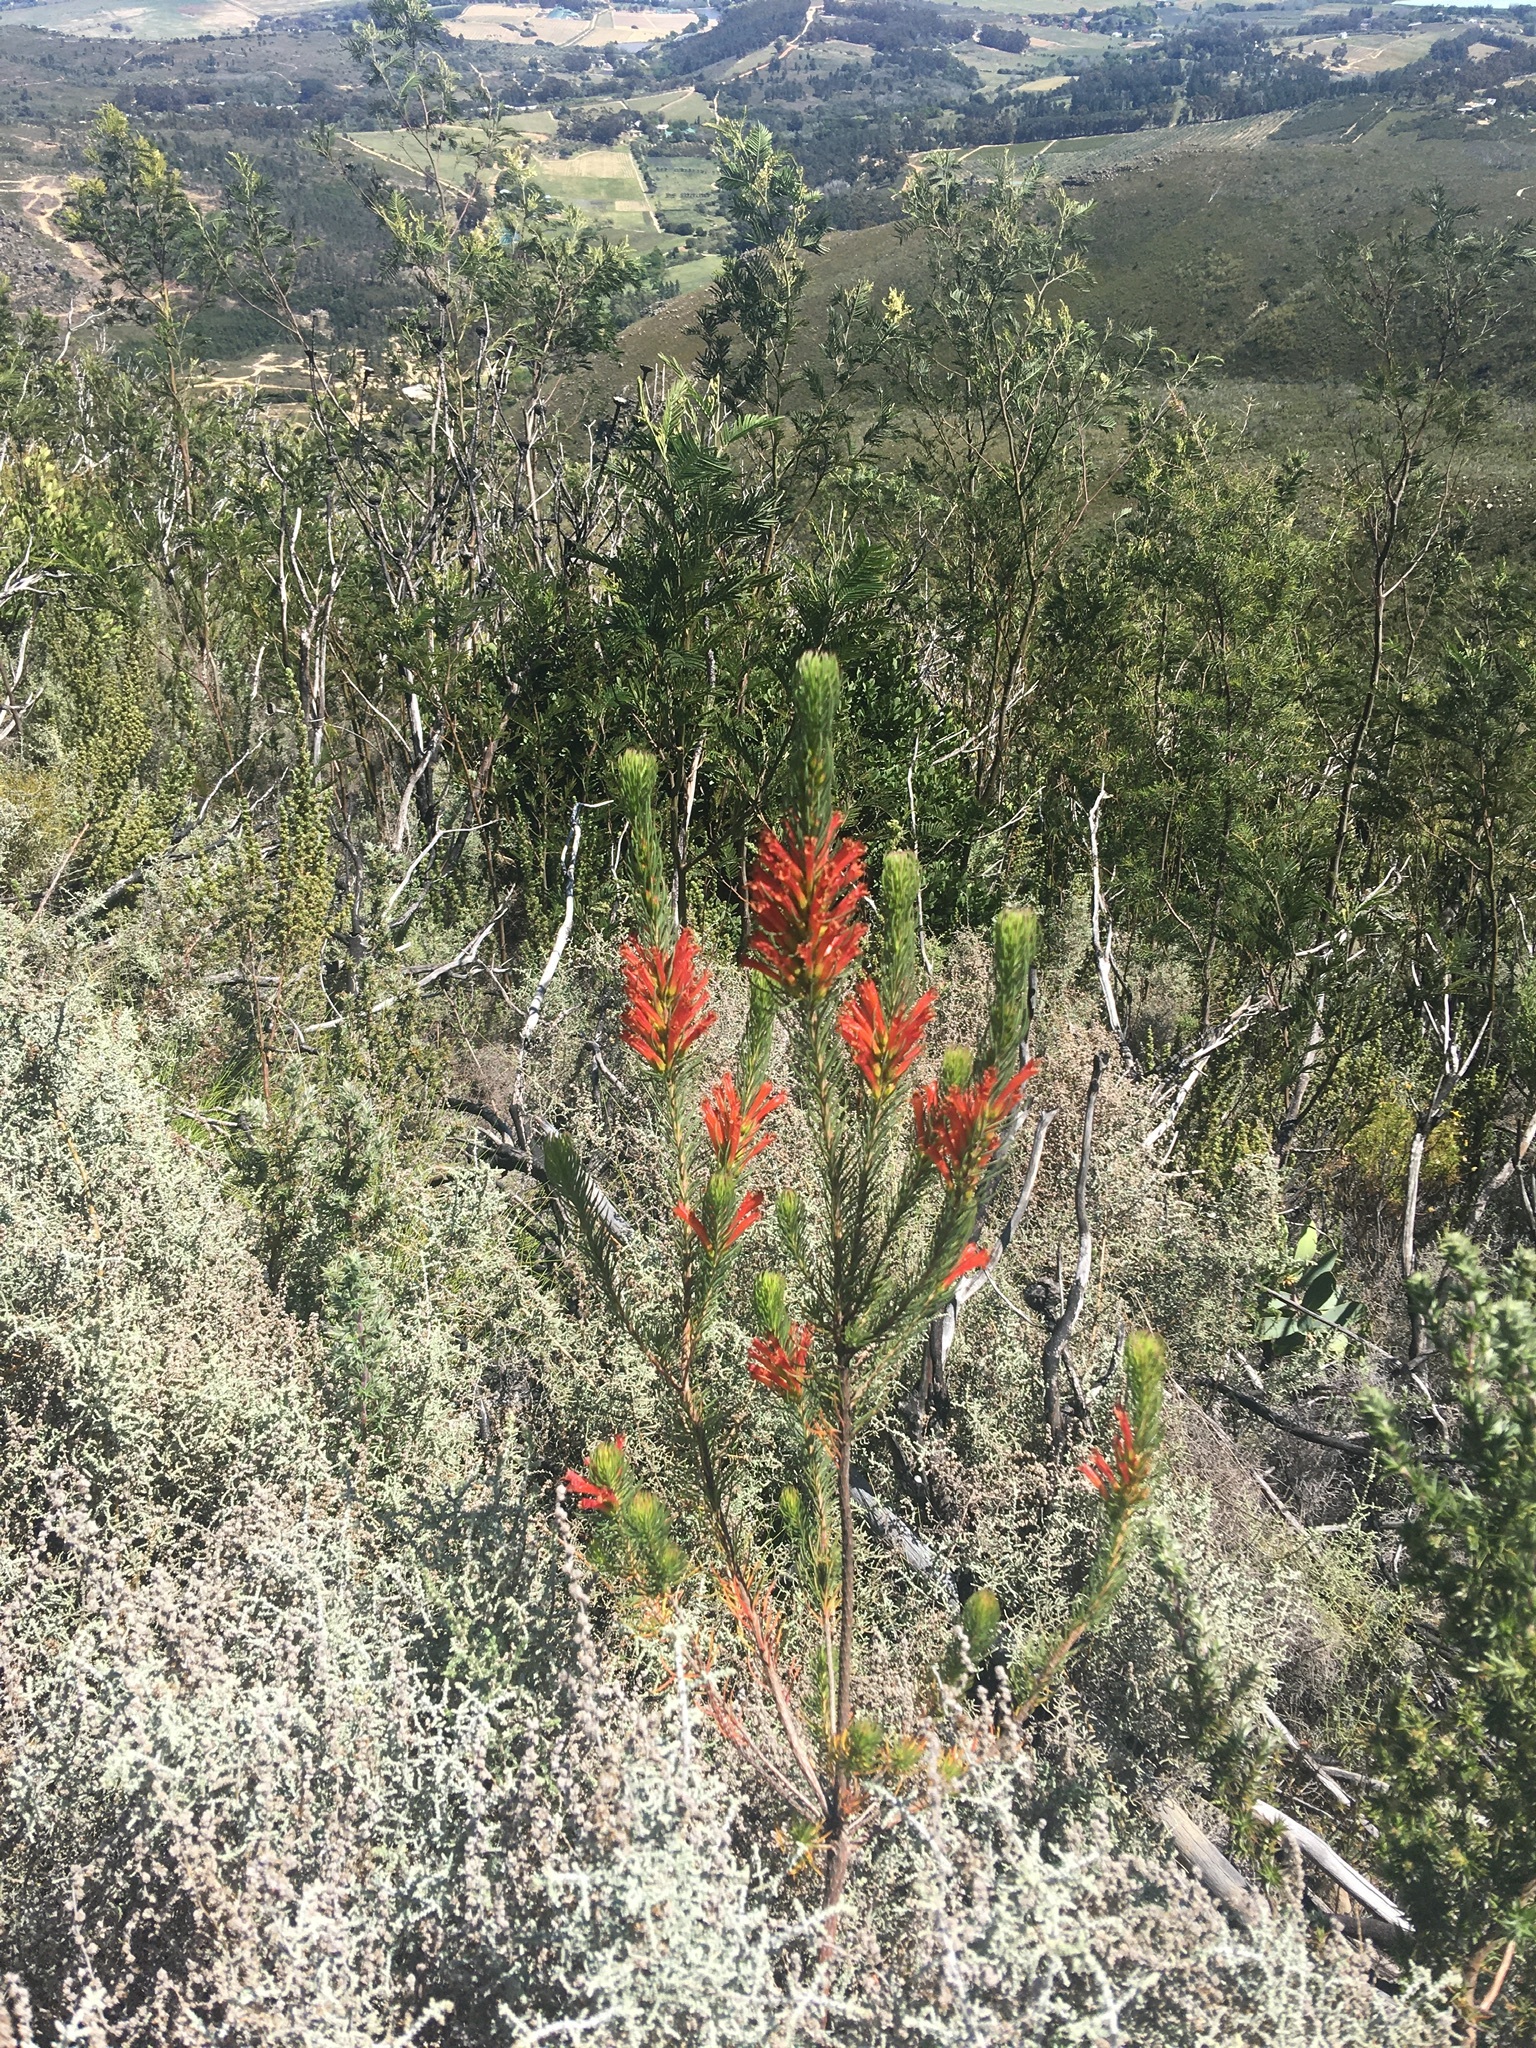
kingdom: Plantae
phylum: Tracheophyta
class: Magnoliopsida
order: Ericales
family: Ericaceae
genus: Erica
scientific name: Erica grandiflora
